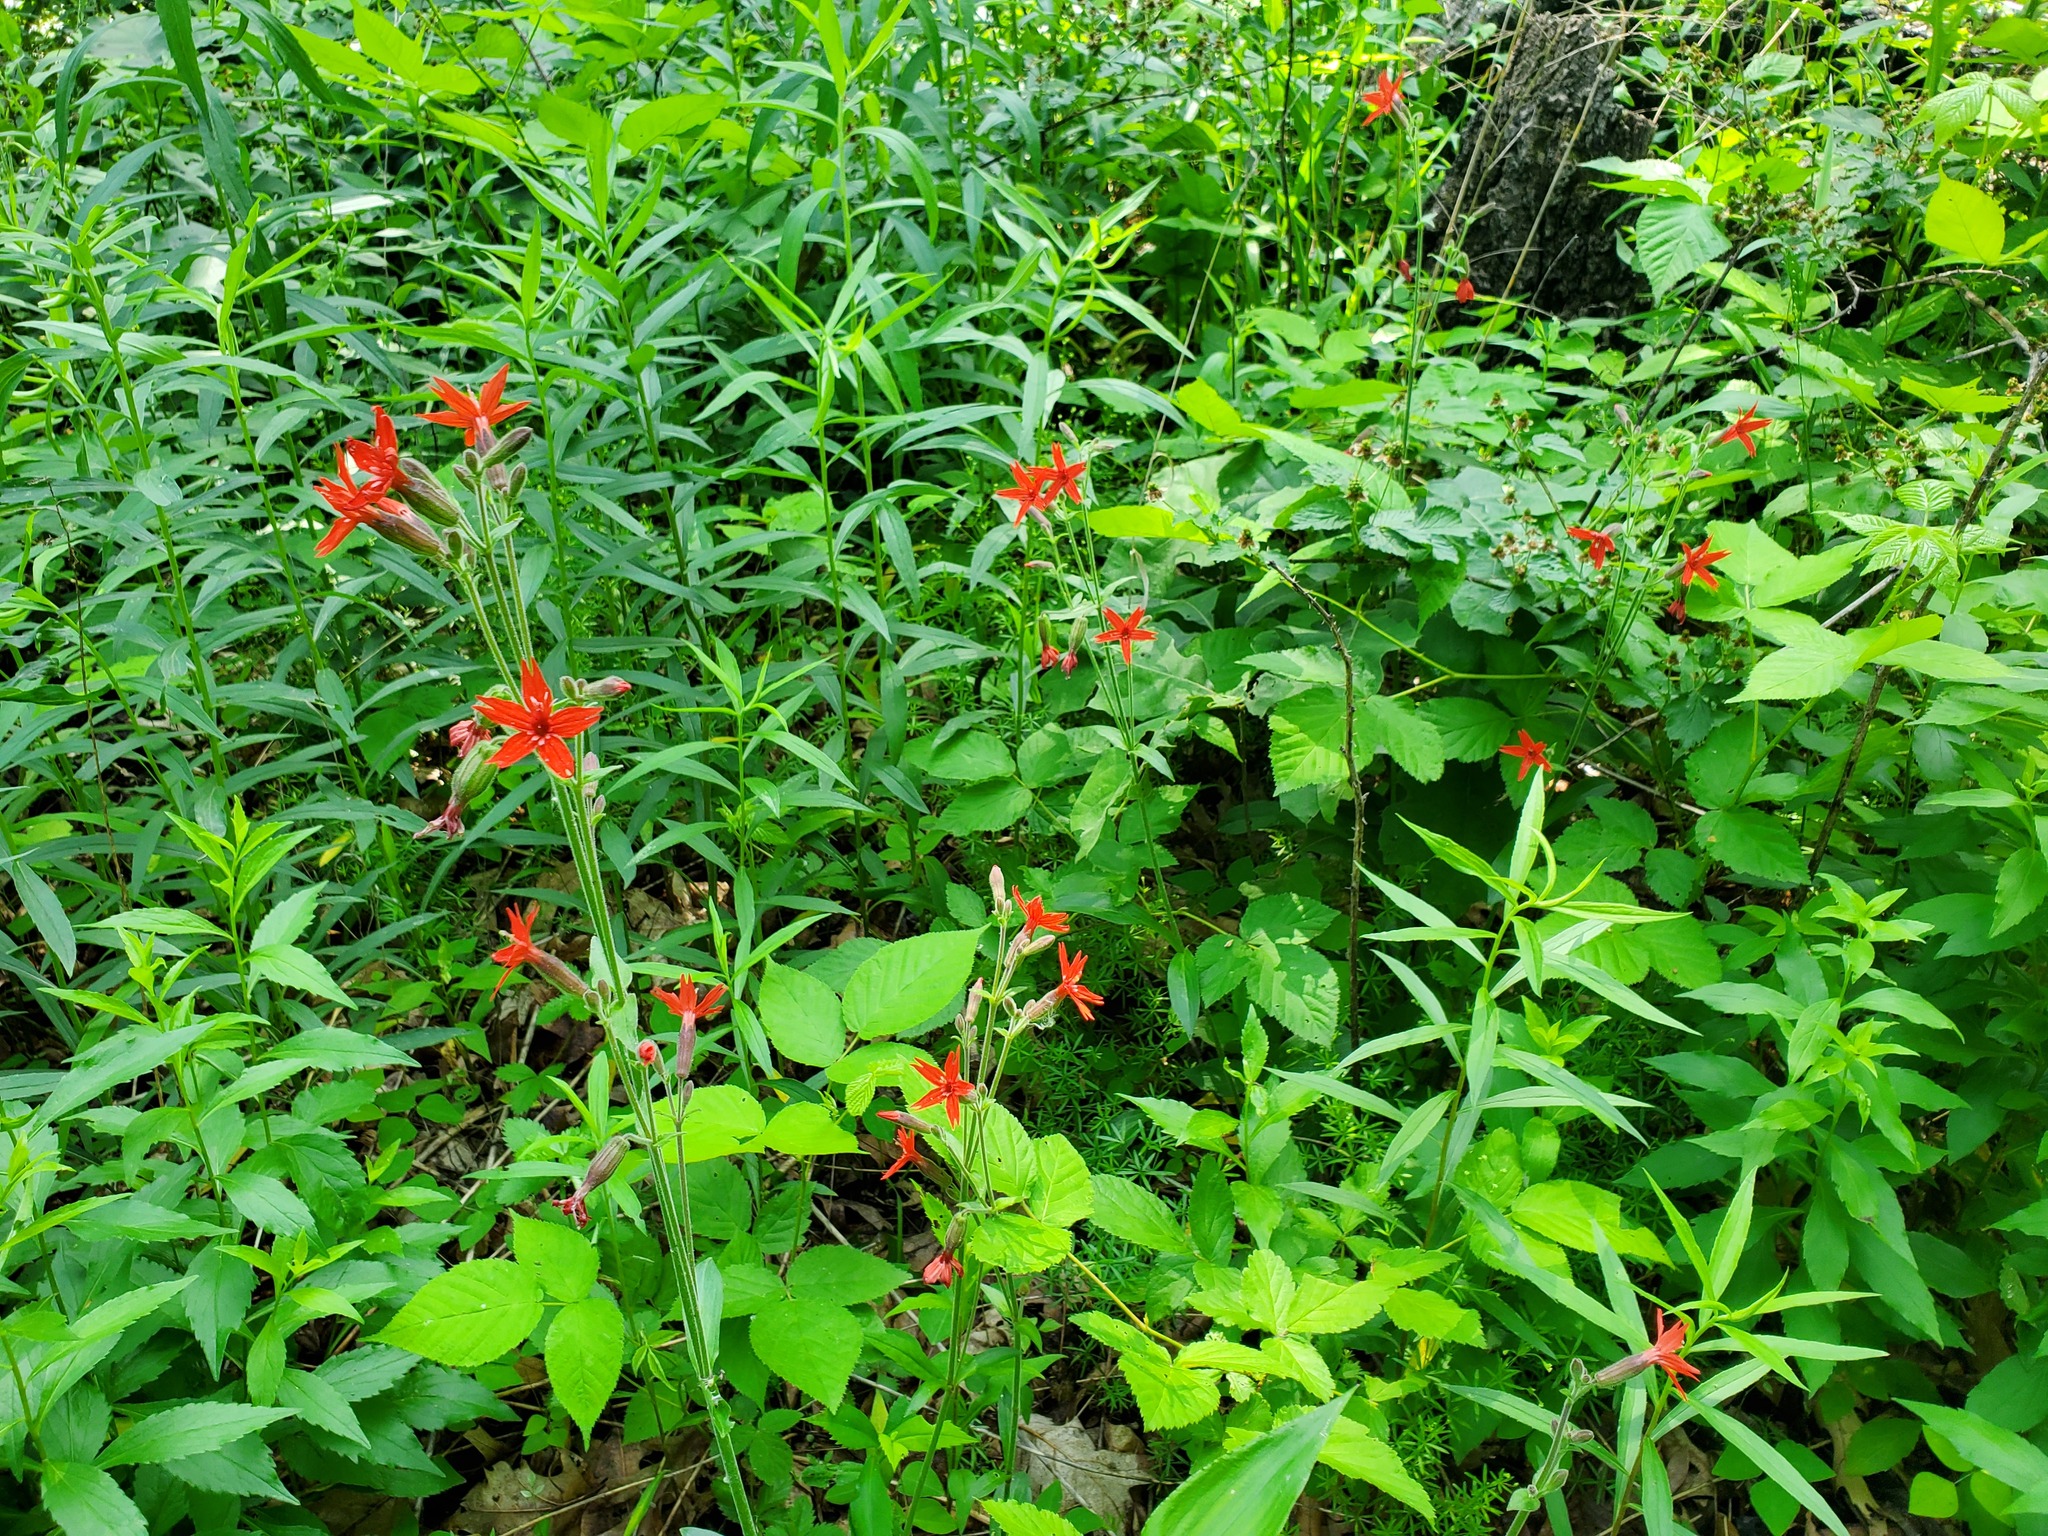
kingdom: Plantae
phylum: Tracheophyta
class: Magnoliopsida
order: Caryophyllales
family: Caryophyllaceae
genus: Silene
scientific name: Silene virginica
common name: Fire-pink
